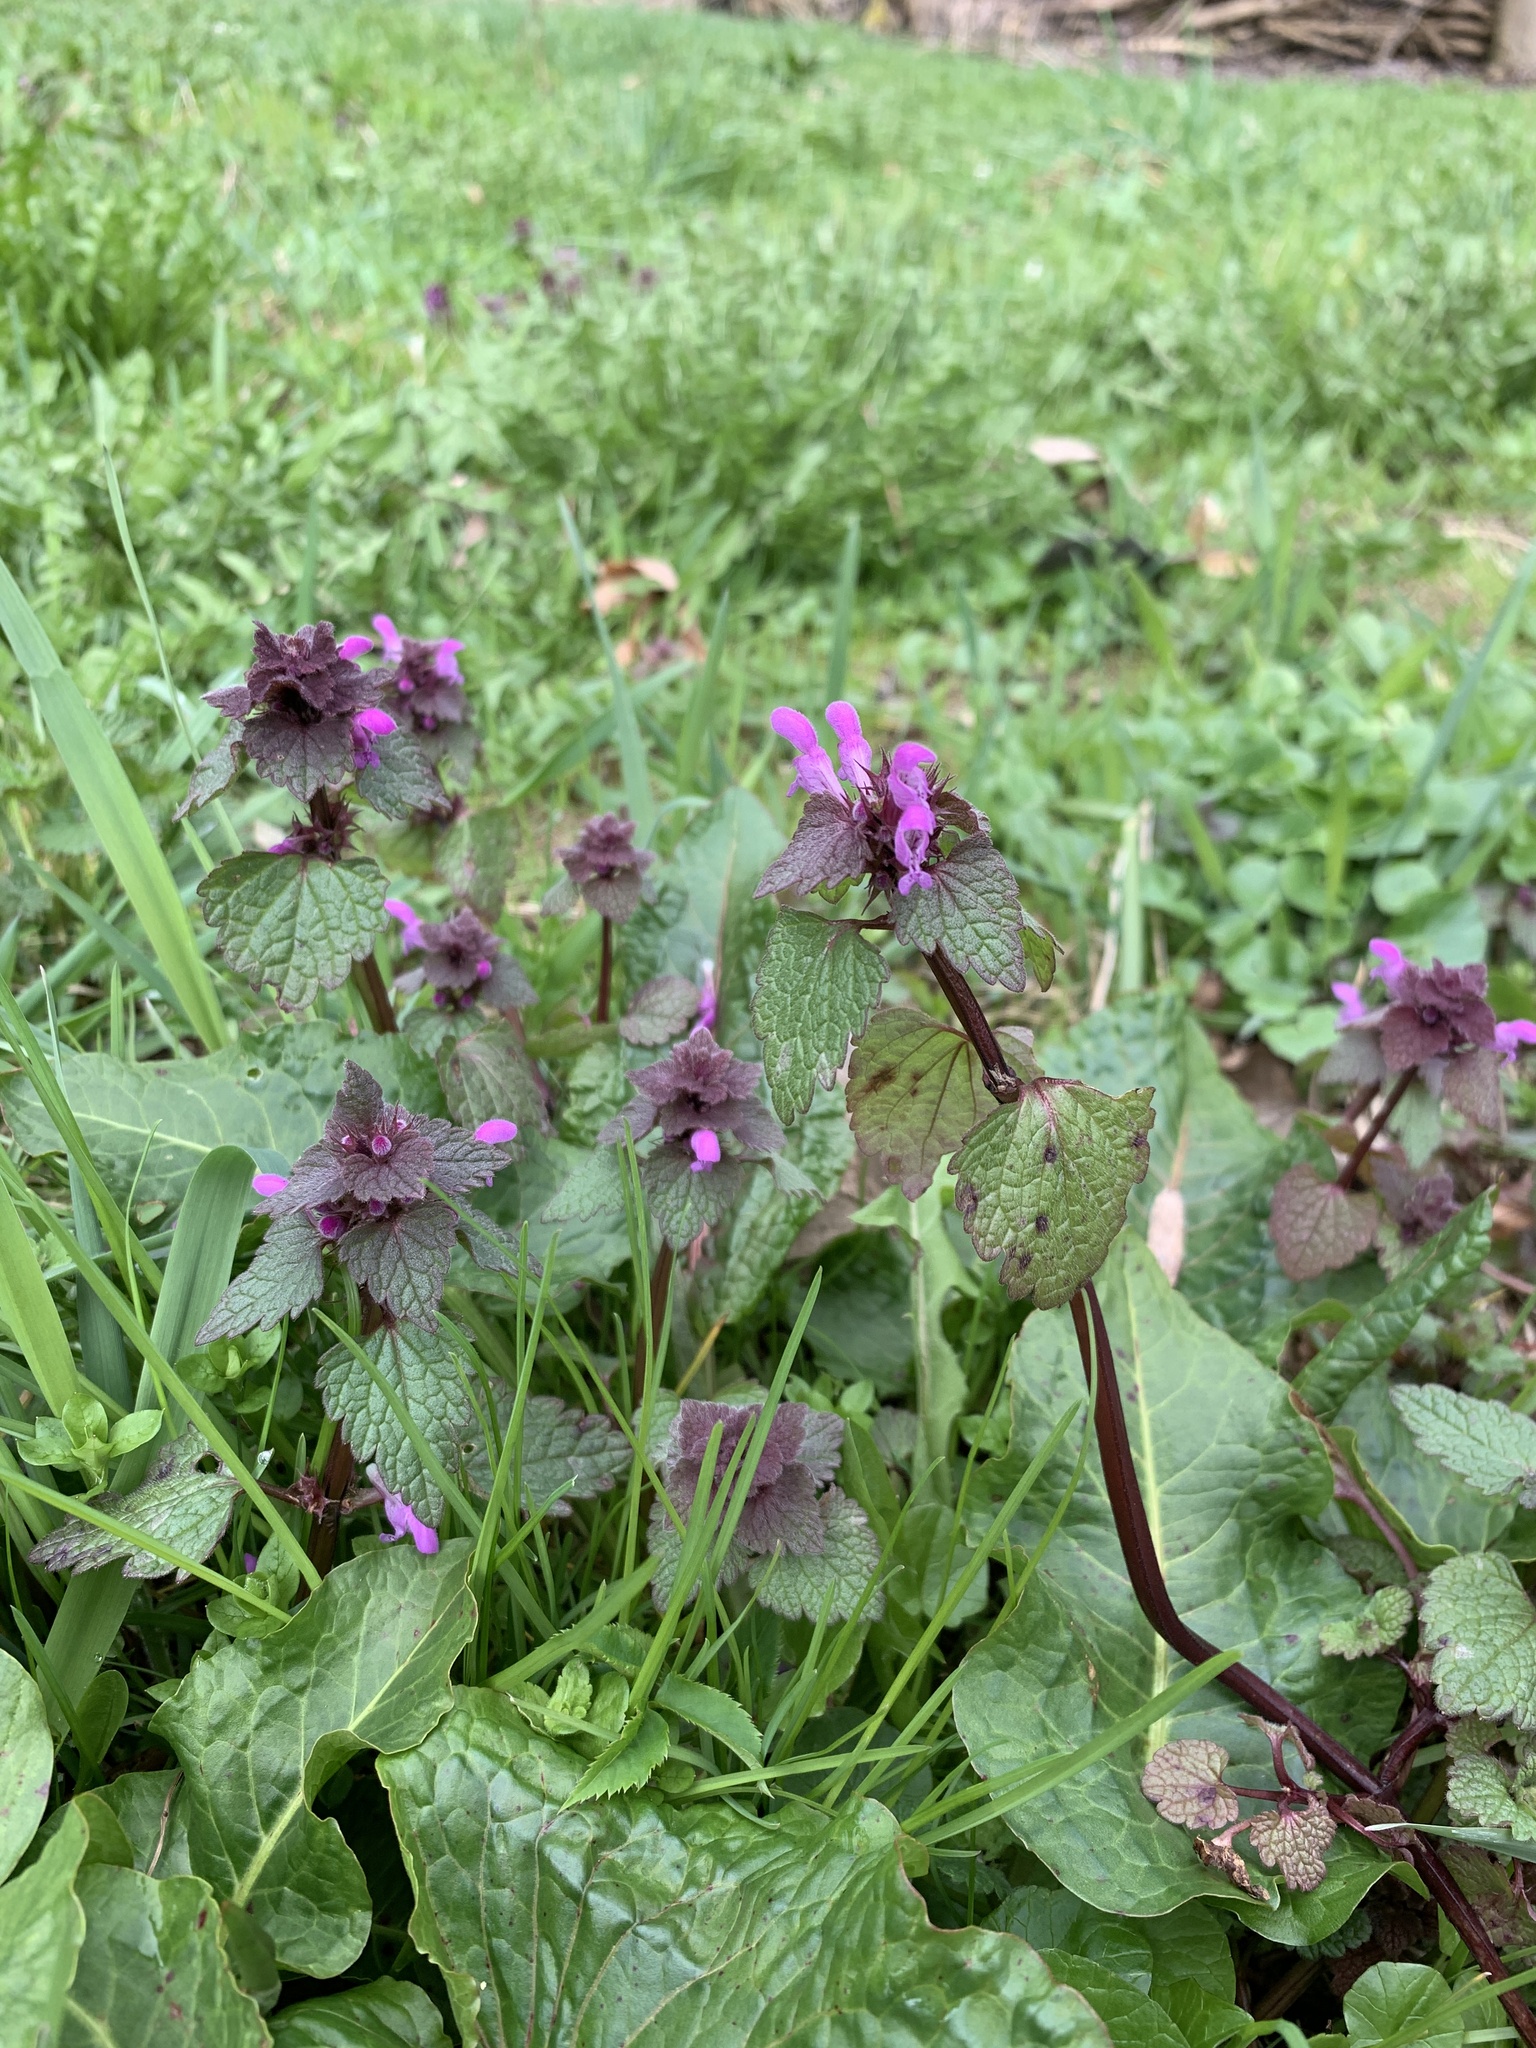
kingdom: Plantae
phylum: Tracheophyta
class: Magnoliopsida
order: Lamiales
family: Lamiaceae
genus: Lamium
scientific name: Lamium purpureum
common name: Red dead-nettle
